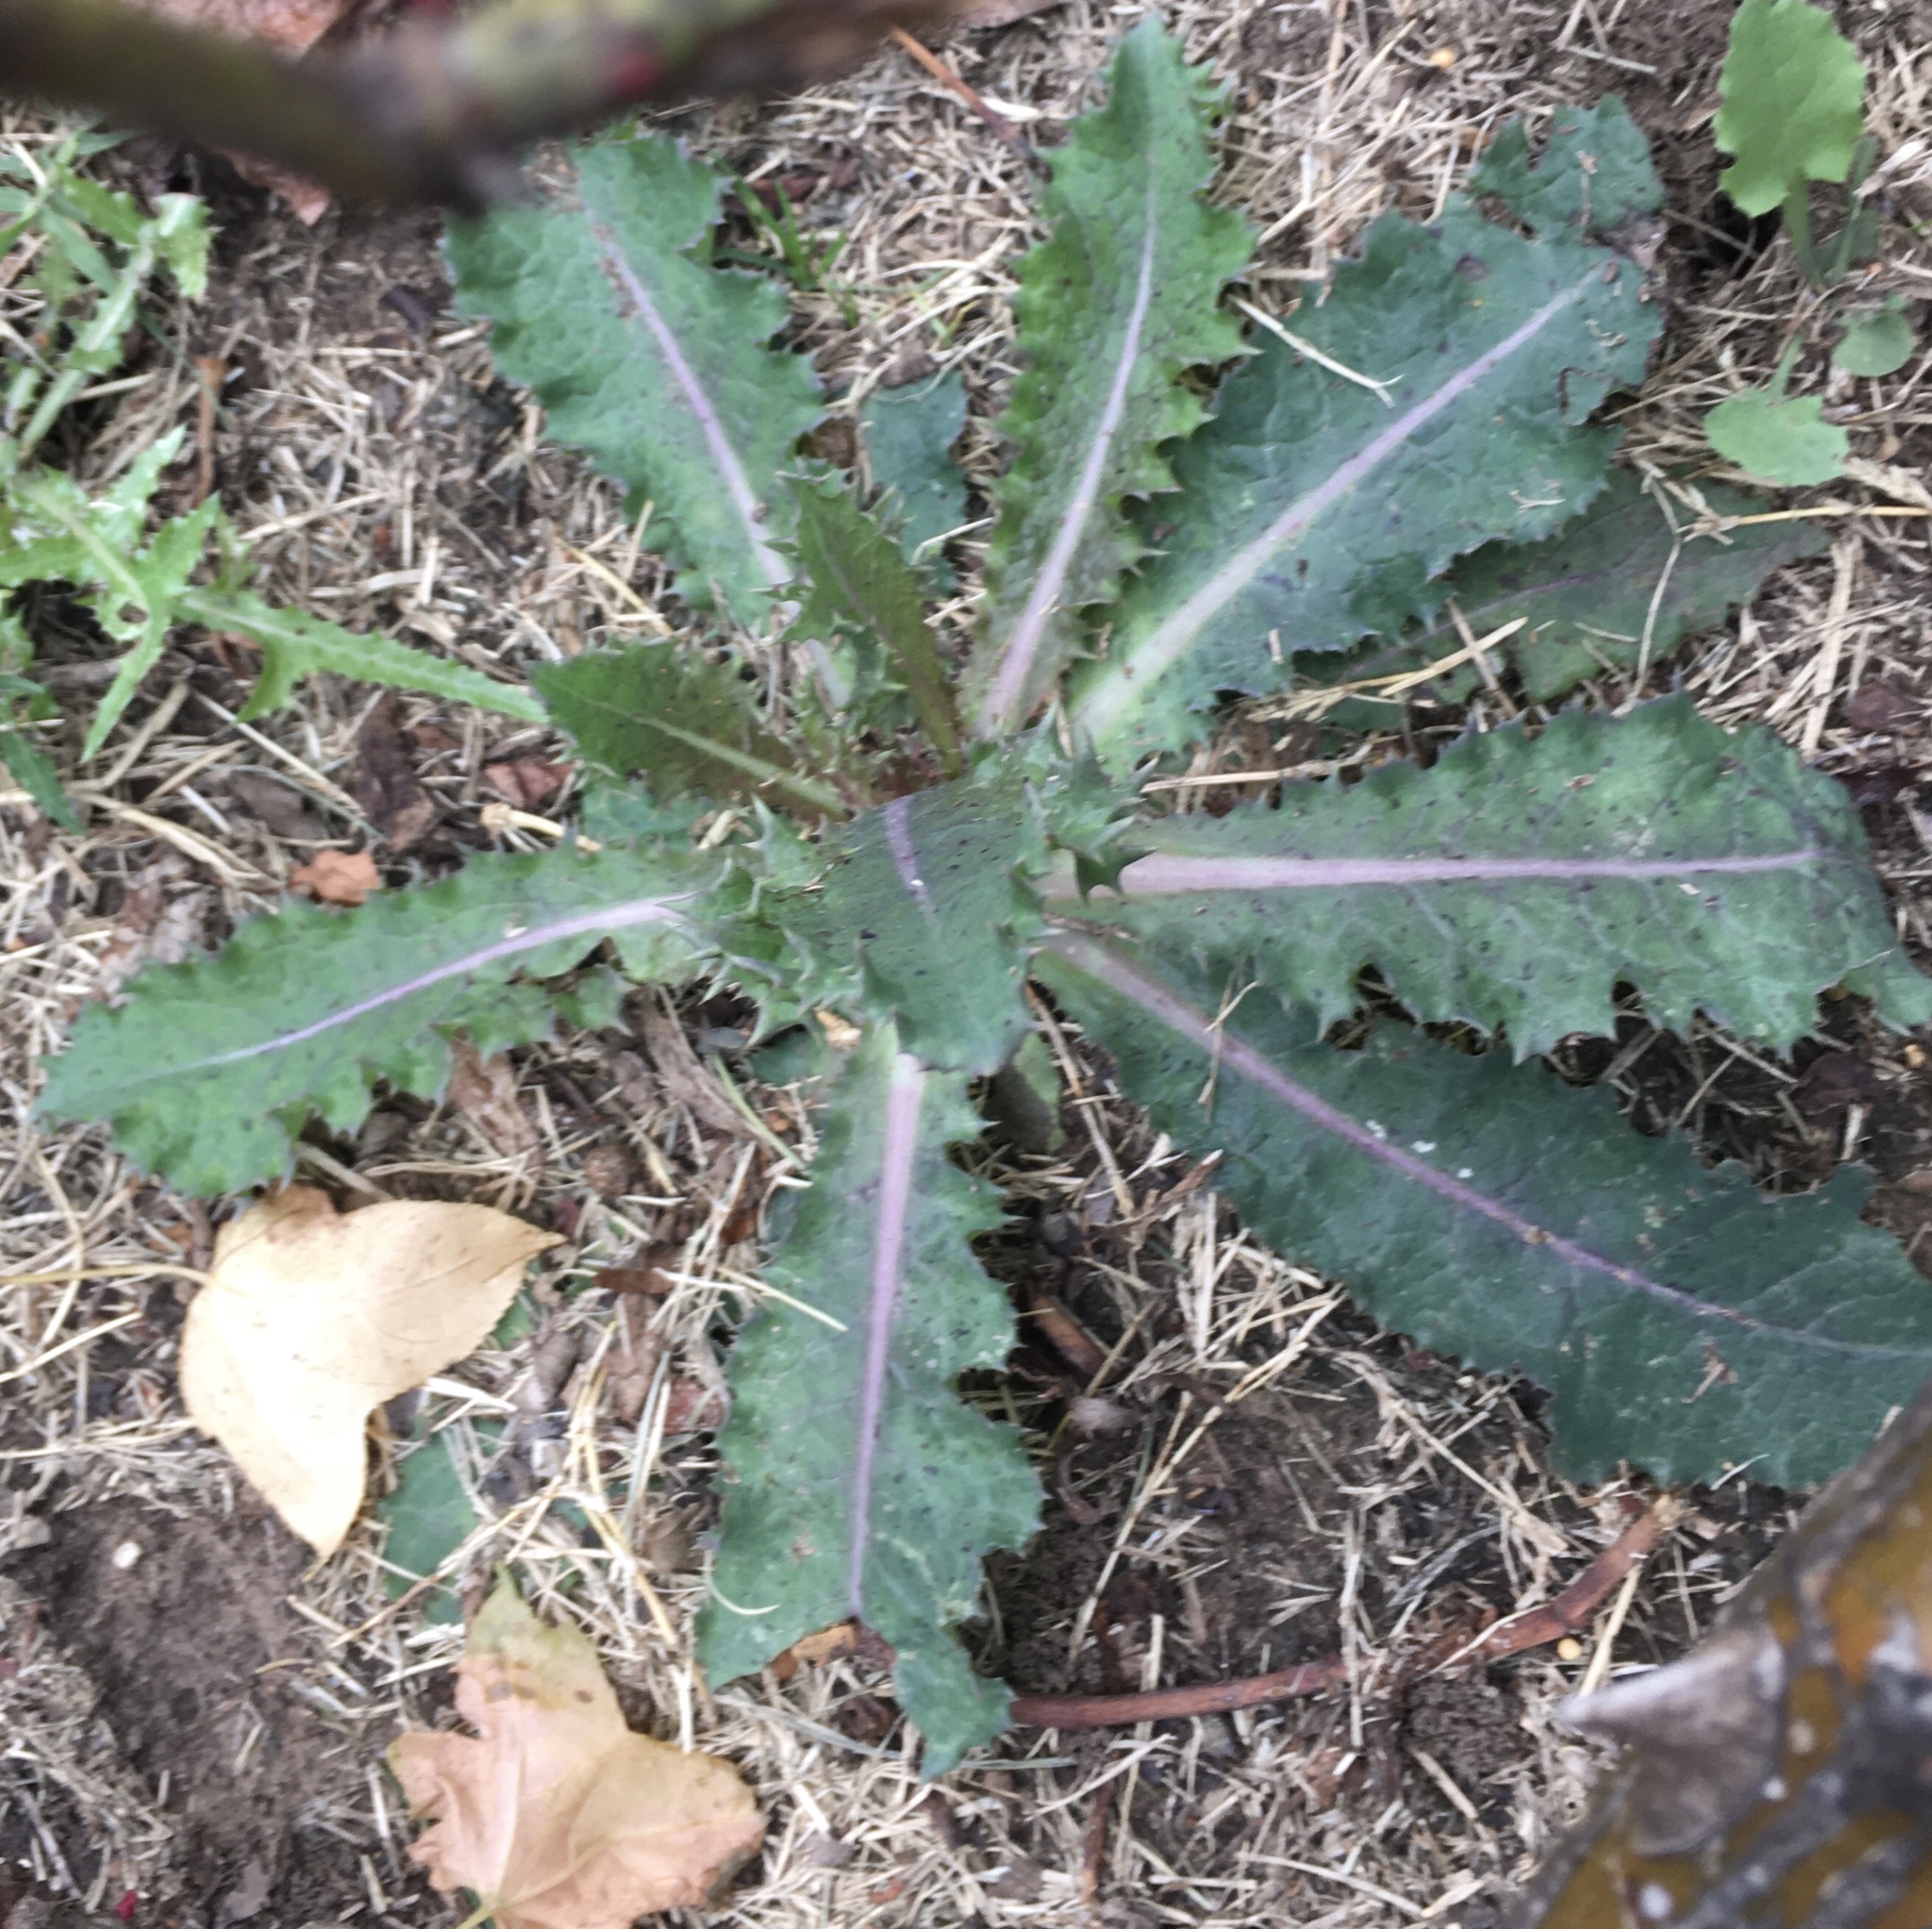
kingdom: Plantae
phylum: Tracheophyta
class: Magnoliopsida
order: Asterales
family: Asteraceae
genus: Sonchus
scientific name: Sonchus asper
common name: Prickly sow-thistle
